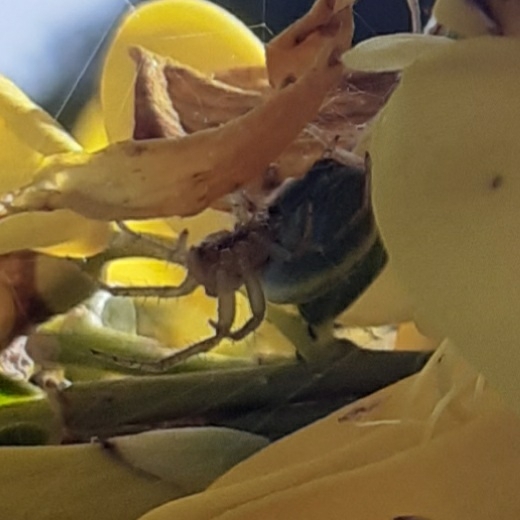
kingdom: Animalia
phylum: Arthropoda
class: Arachnida
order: Araneae
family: Araneidae
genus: Araniella
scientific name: Araniella
